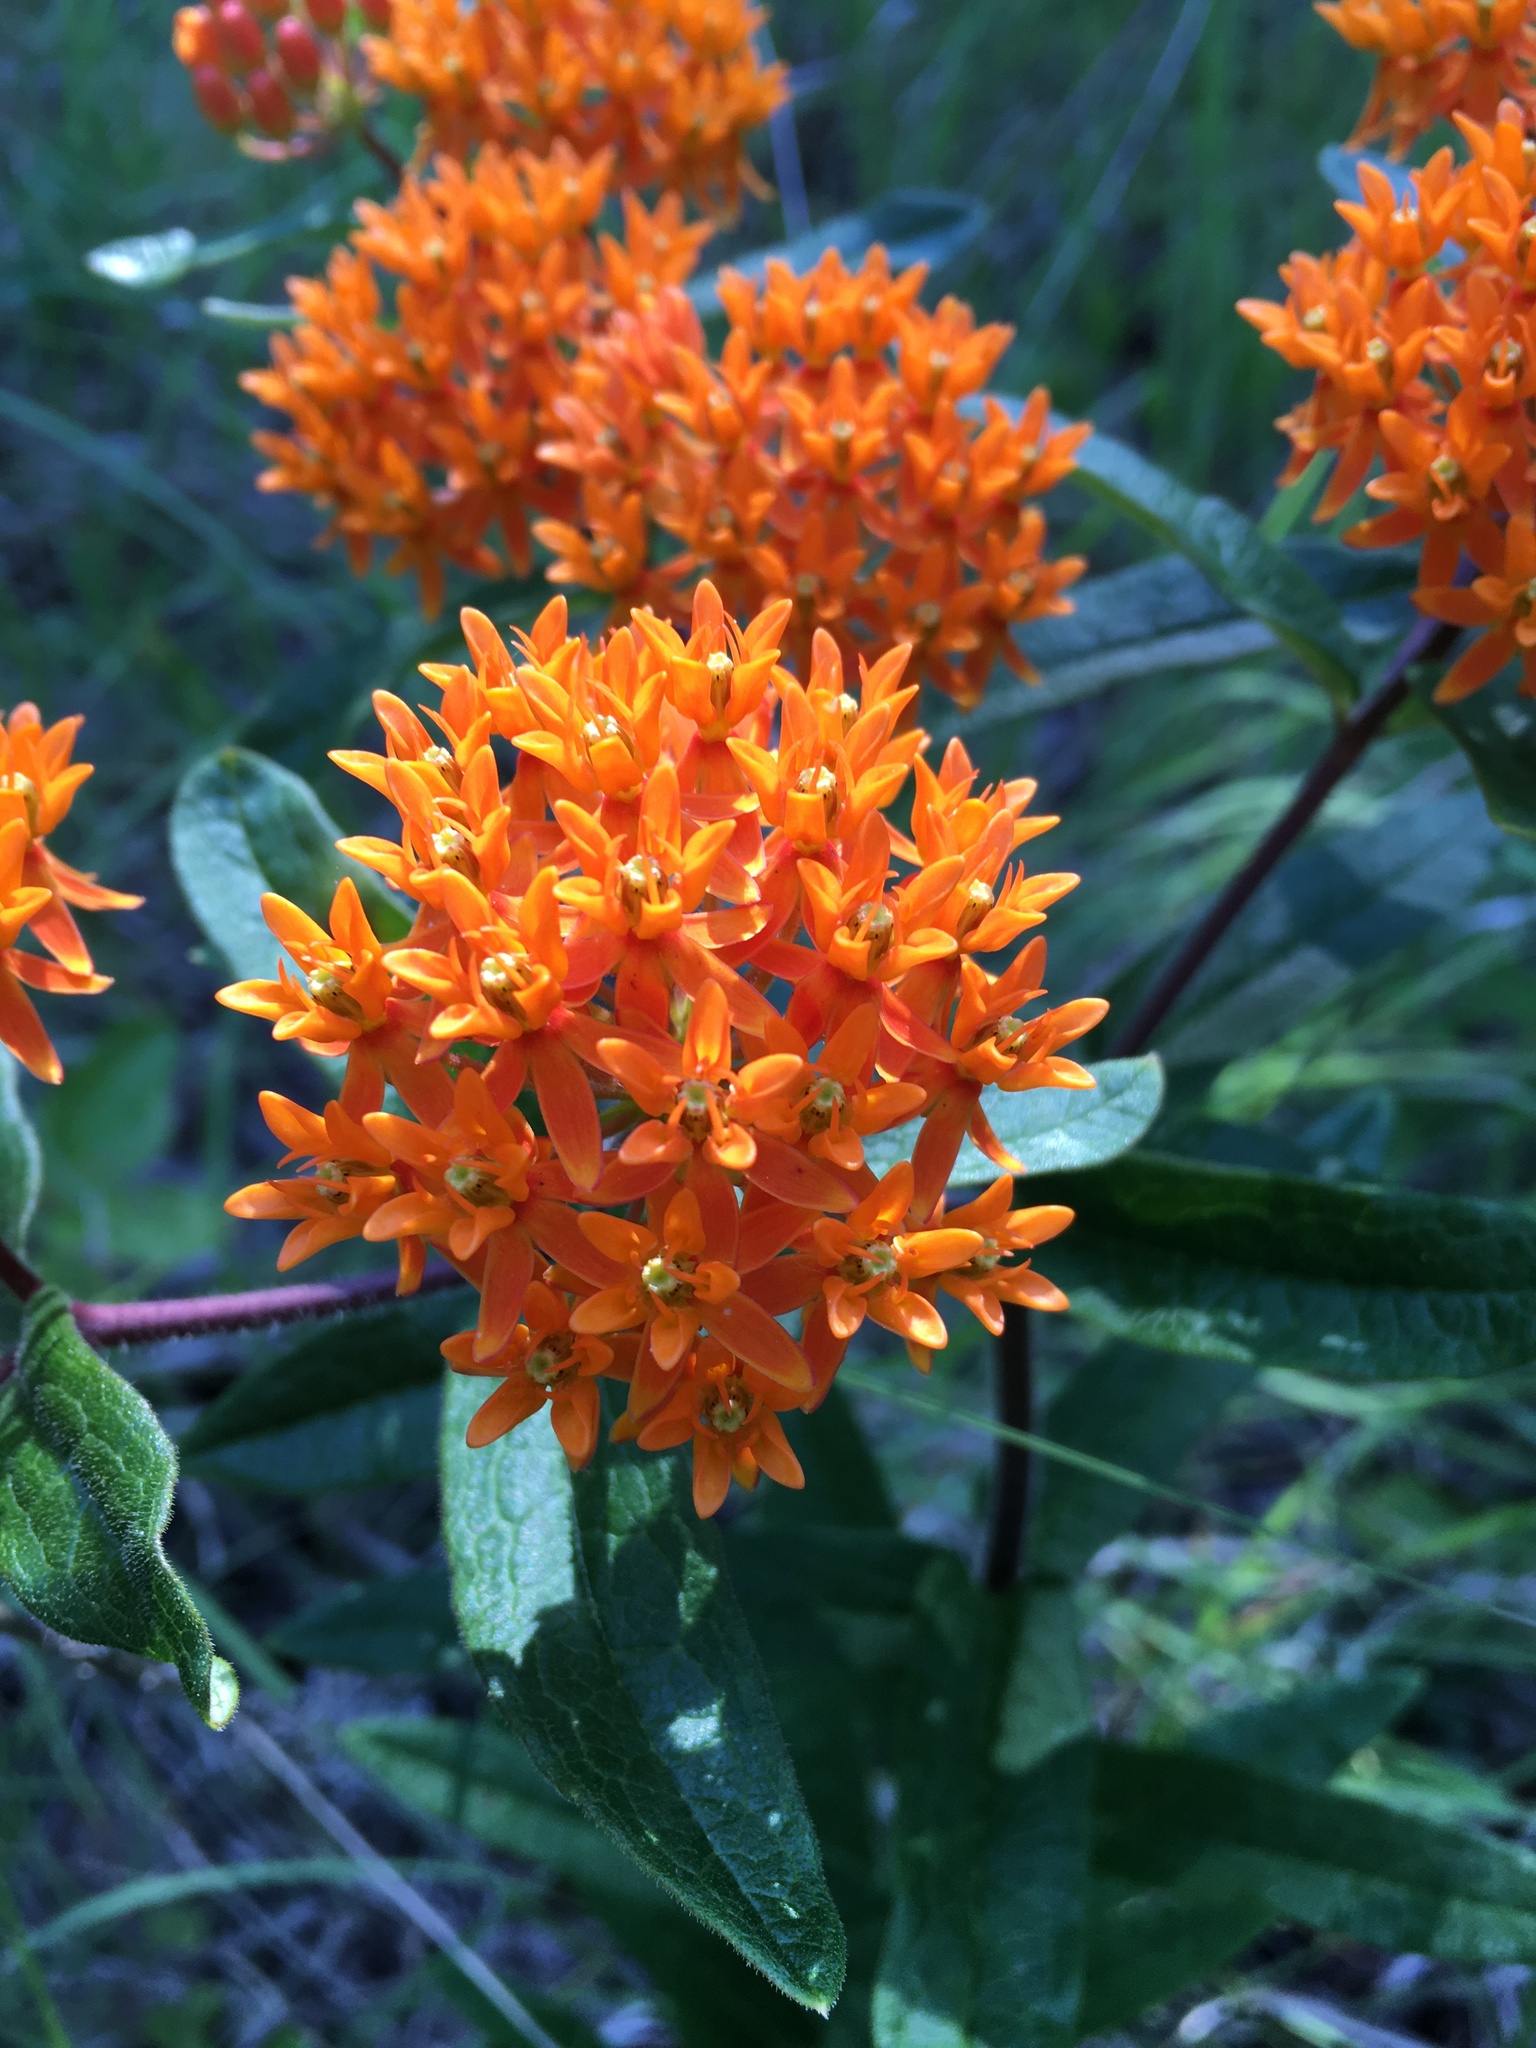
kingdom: Plantae
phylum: Tracheophyta
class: Magnoliopsida
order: Gentianales
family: Apocynaceae
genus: Asclepias
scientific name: Asclepias tuberosa
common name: Butterfly milkweed
